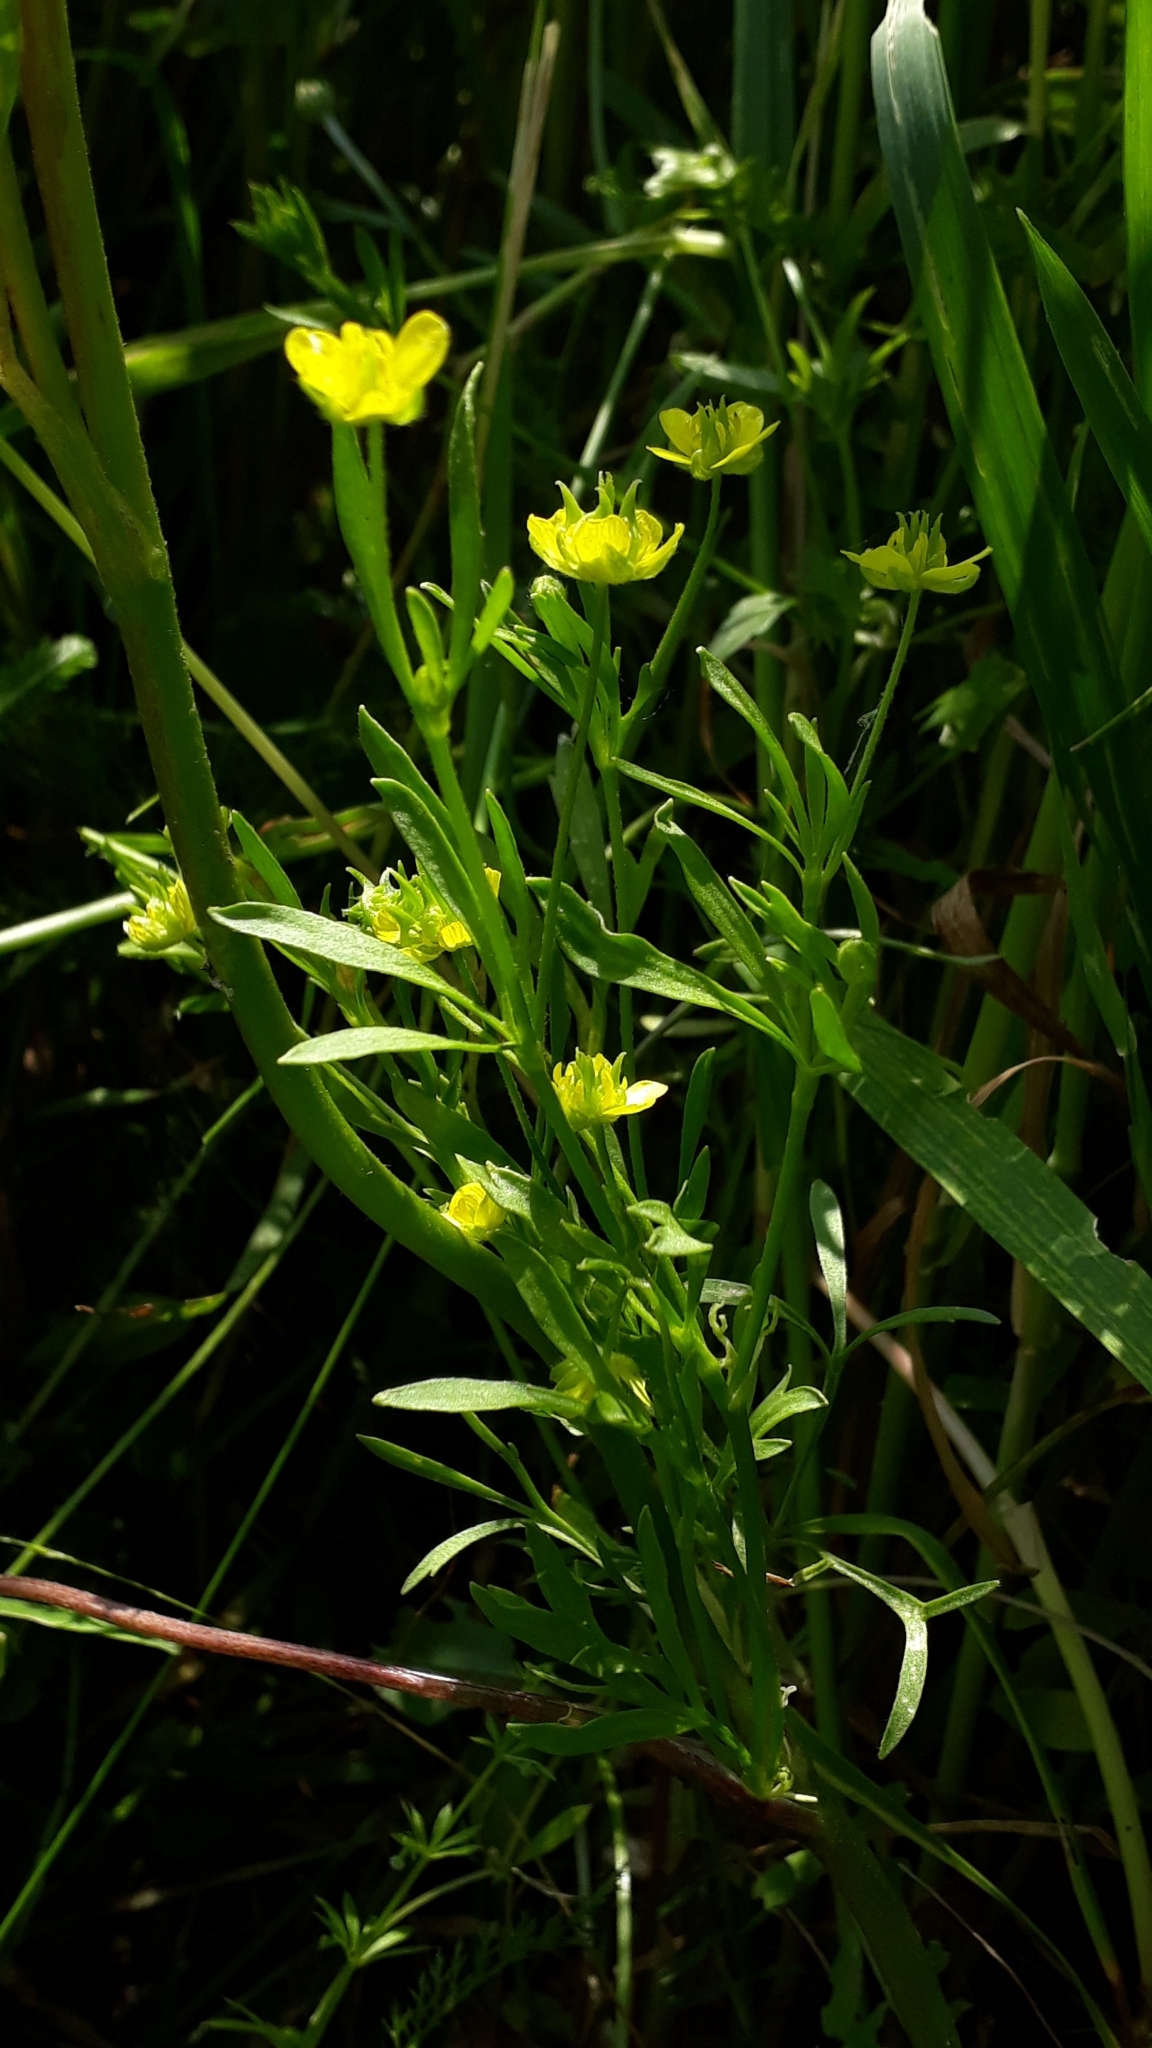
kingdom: Plantae
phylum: Tracheophyta
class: Magnoliopsida
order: Ranunculales
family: Ranunculaceae
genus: Ranunculus
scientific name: Ranunculus arvensis
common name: Corn buttercup
